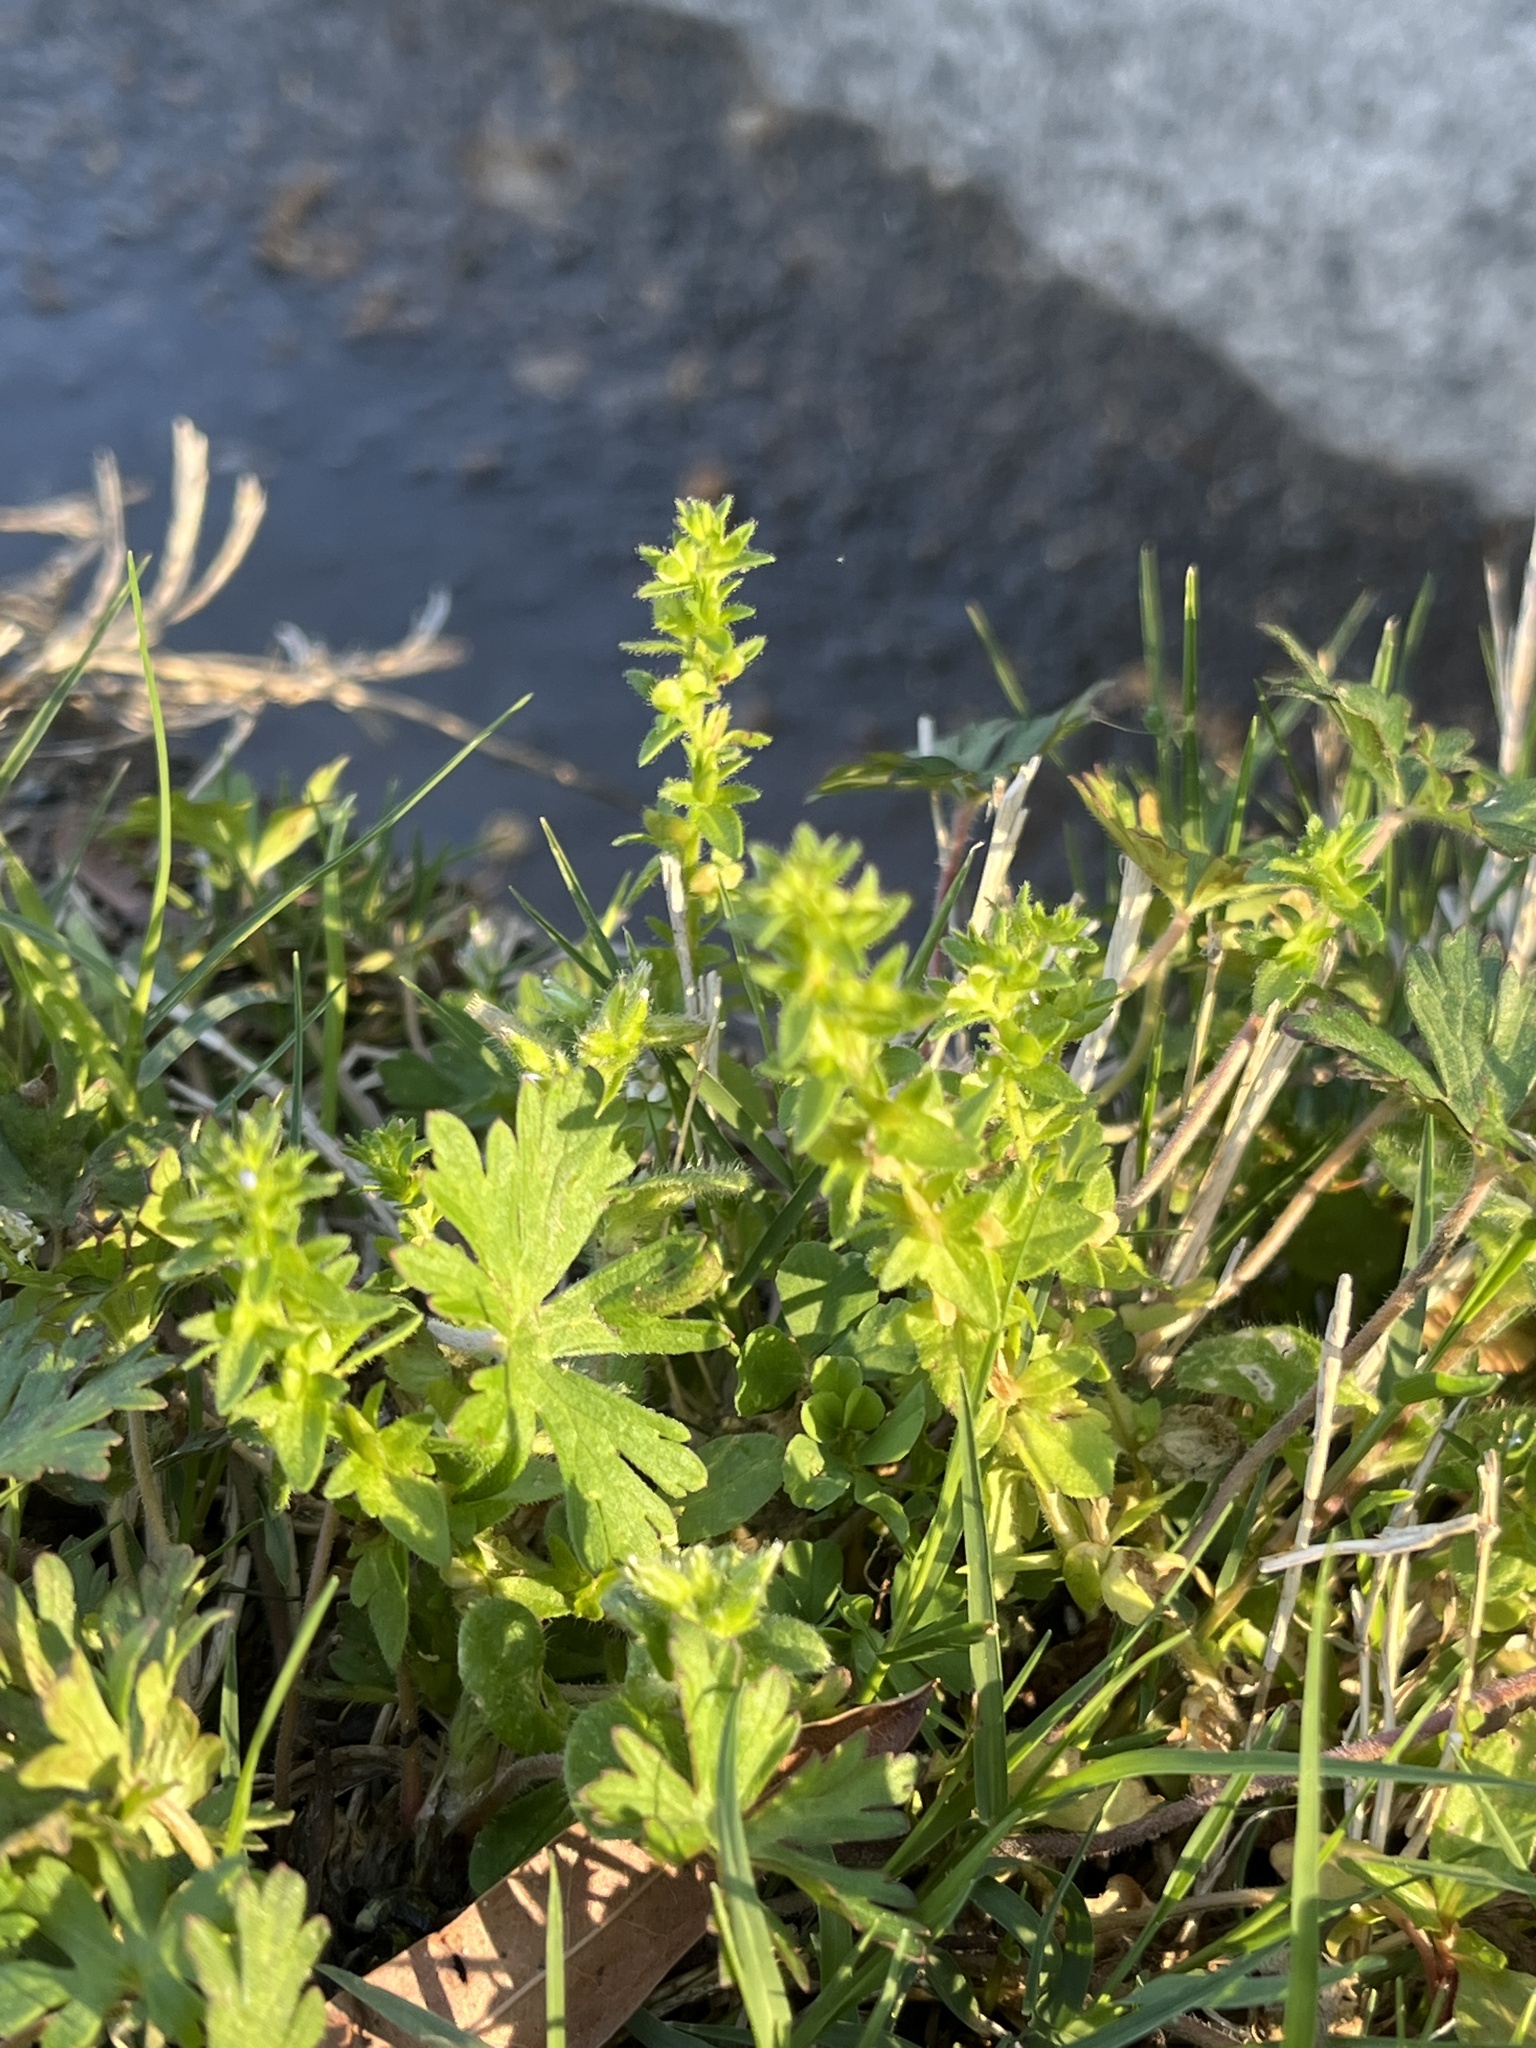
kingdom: Plantae
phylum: Tracheophyta
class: Magnoliopsida
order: Lamiales
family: Plantaginaceae
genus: Veronica
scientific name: Veronica arvensis
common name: Corn speedwell
